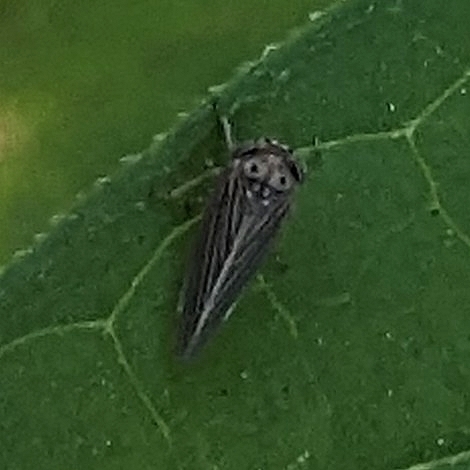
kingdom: Animalia
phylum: Arthropoda
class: Insecta
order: Hemiptera
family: Cicadellidae
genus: Agallia
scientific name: Agallia constricta
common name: The constricted leafhopper
